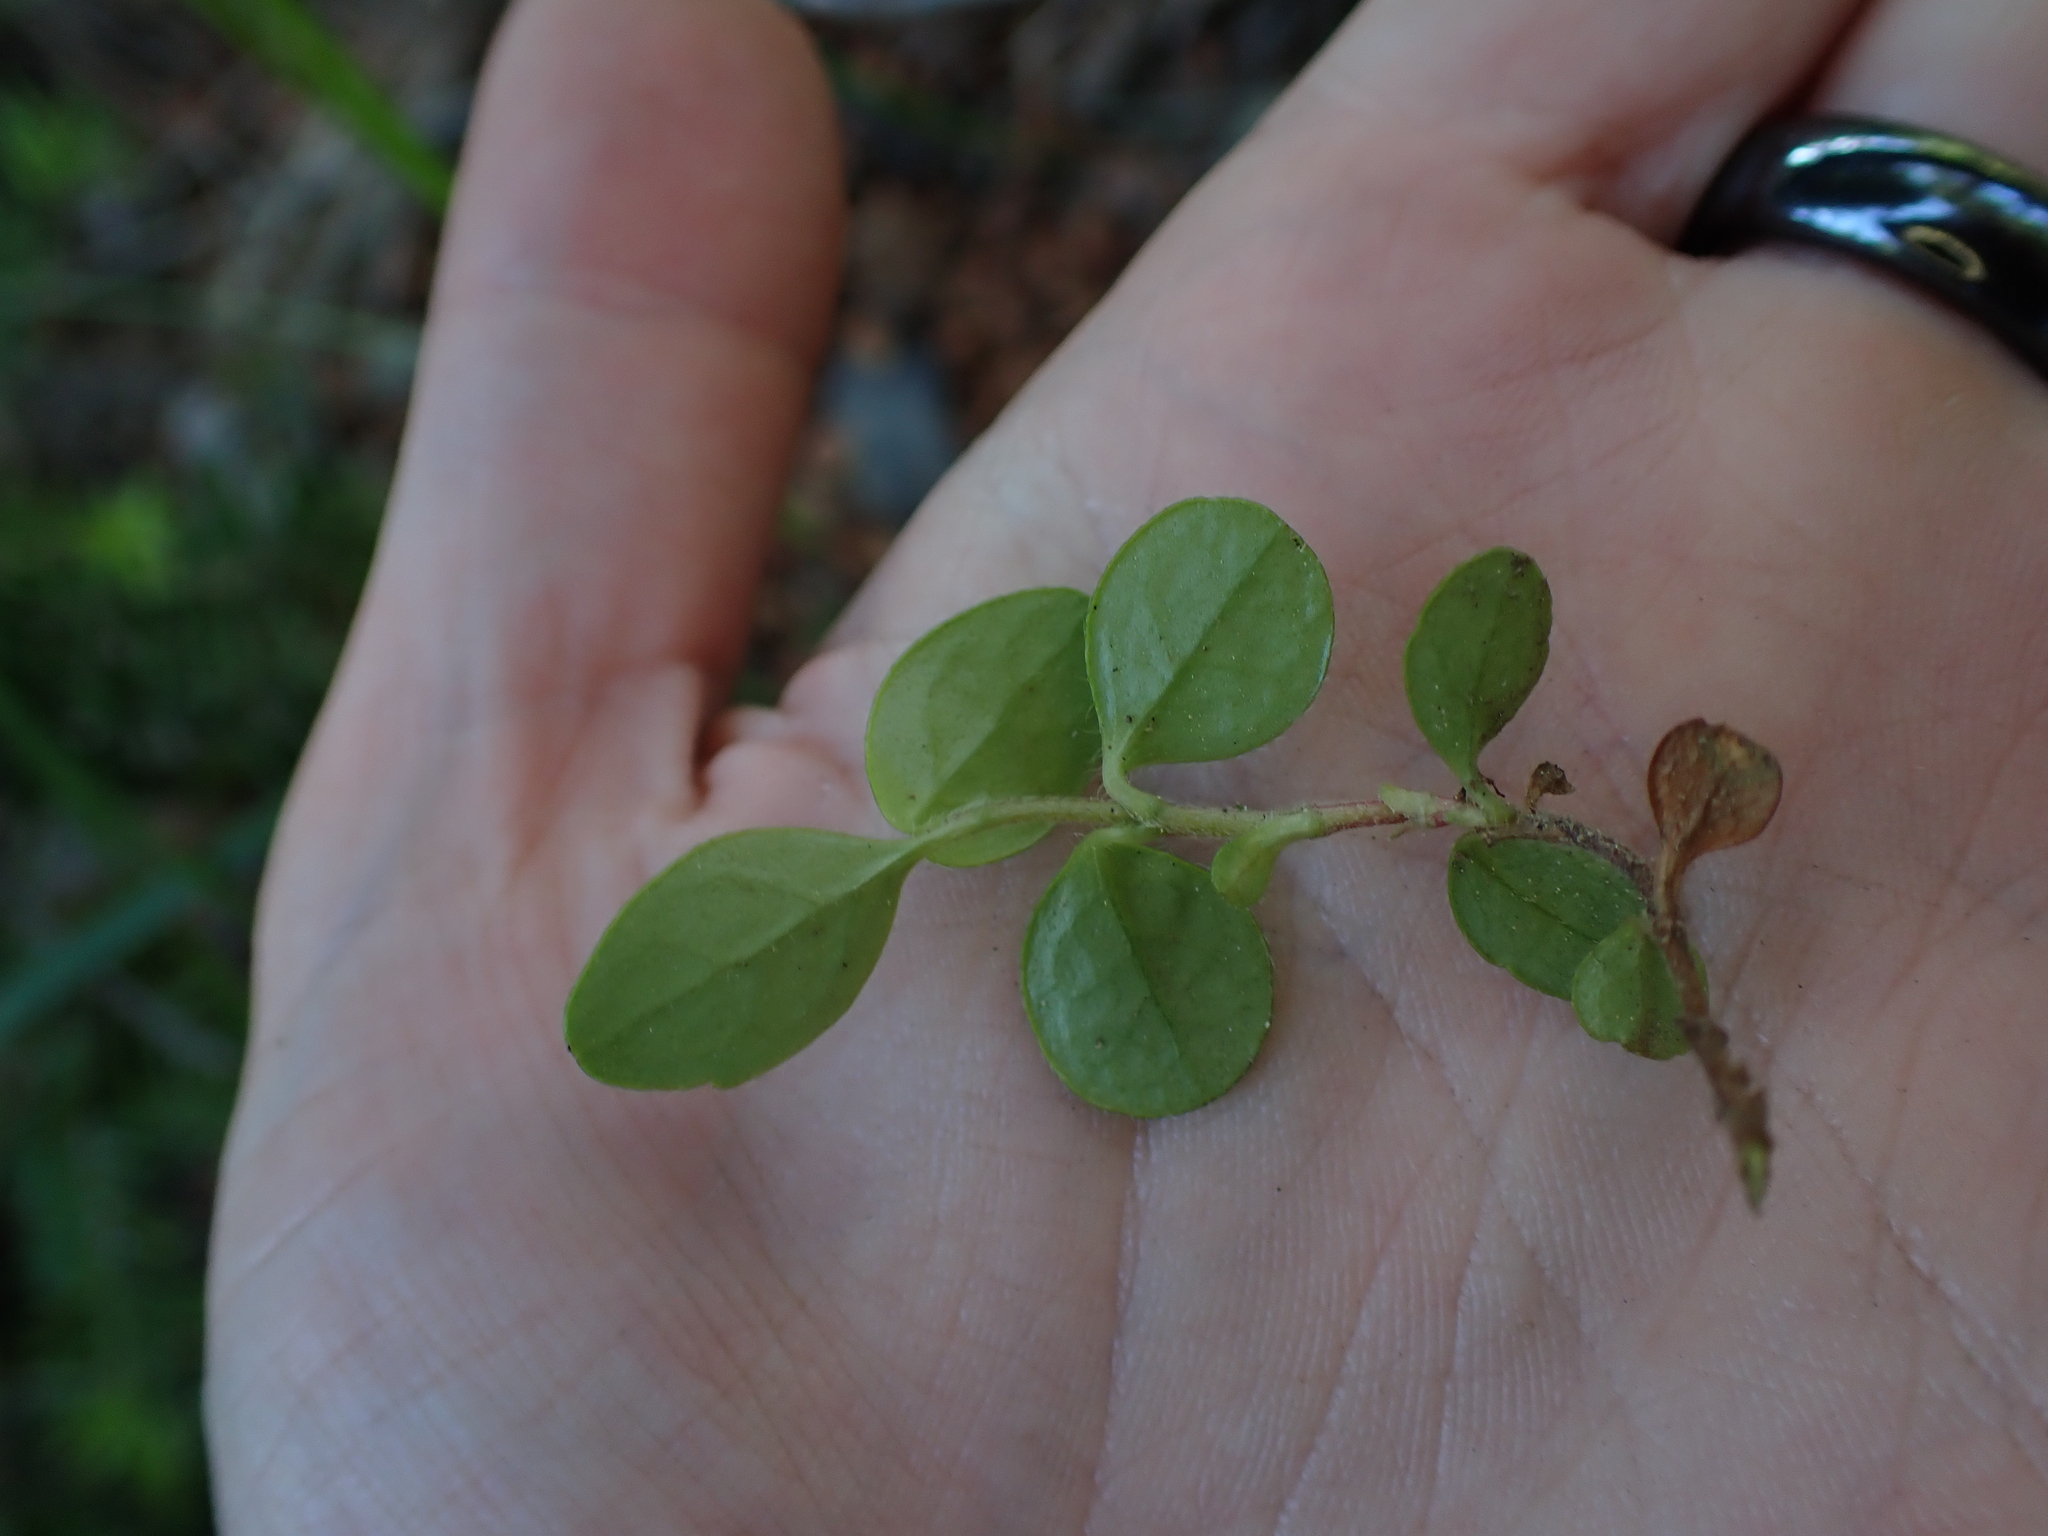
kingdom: Plantae
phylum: Tracheophyta
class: Magnoliopsida
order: Dipsacales
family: Caprifoliaceae
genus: Linnaea
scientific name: Linnaea borealis
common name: Twinflower
